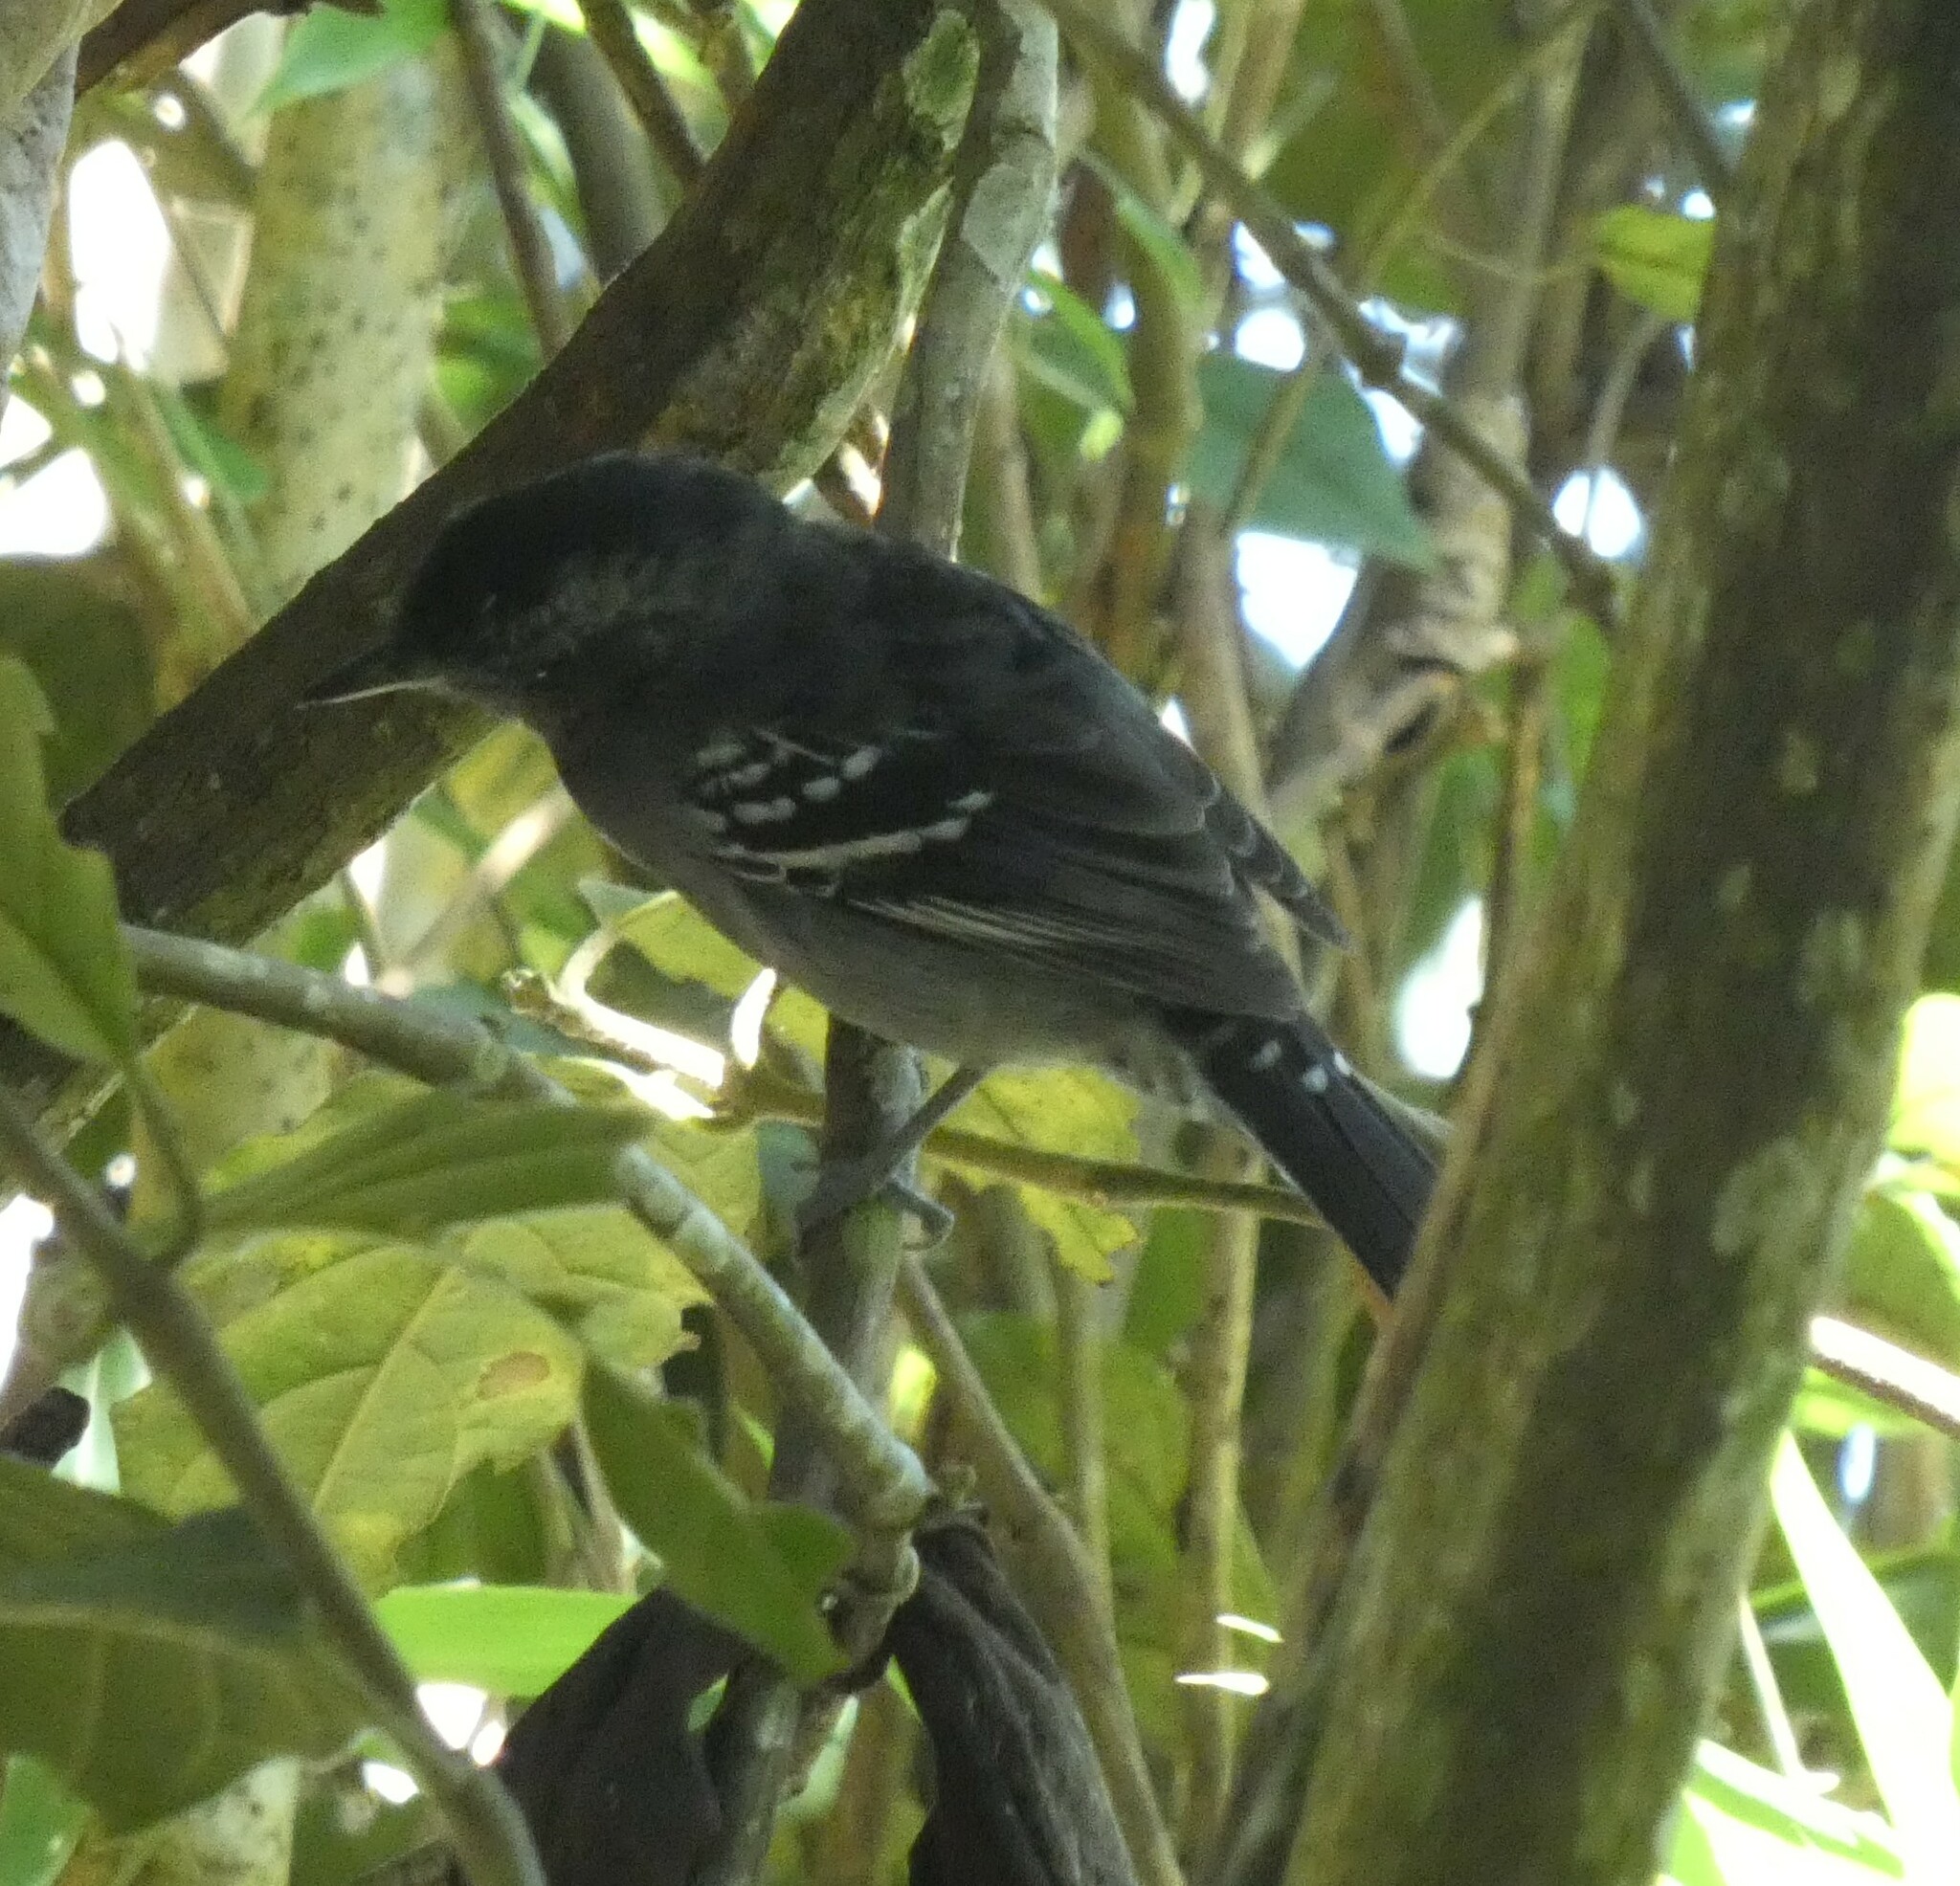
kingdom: Animalia
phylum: Chordata
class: Aves
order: Passeriformes
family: Thamnophilidae
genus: Thamnophilus
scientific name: Thamnophilus caerulescens
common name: Variable antshrike
